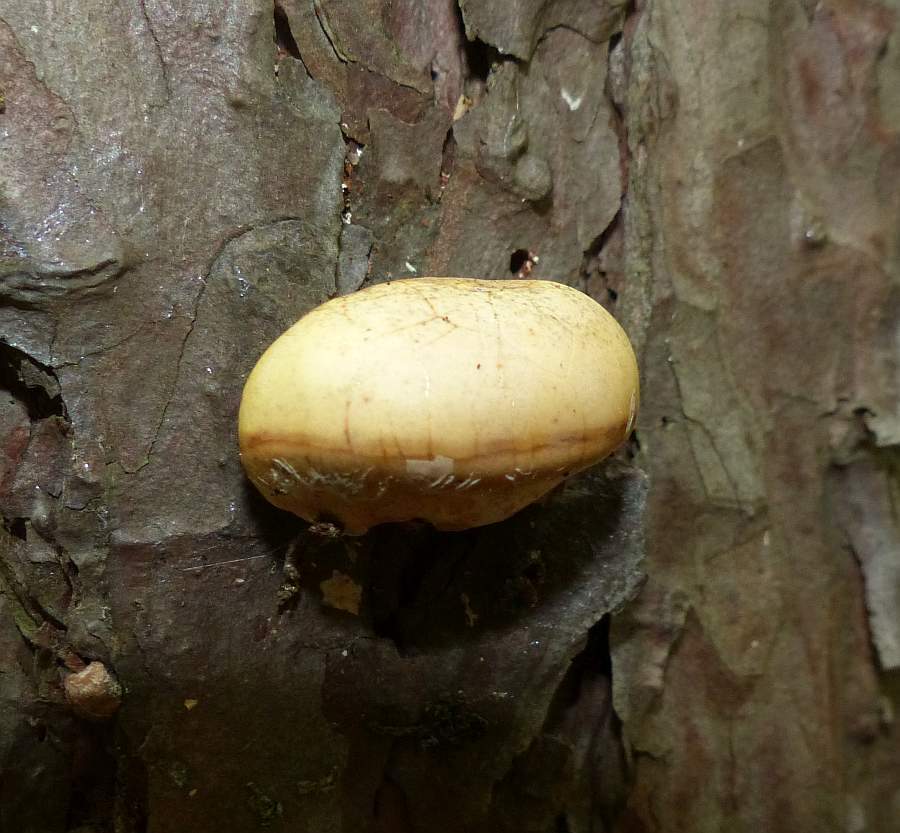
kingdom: Fungi
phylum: Basidiomycota
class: Agaricomycetes
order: Polyporales
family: Polyporaceae
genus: Cryptoporus
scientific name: Cryptoporus volvatus
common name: Veiled polypore
